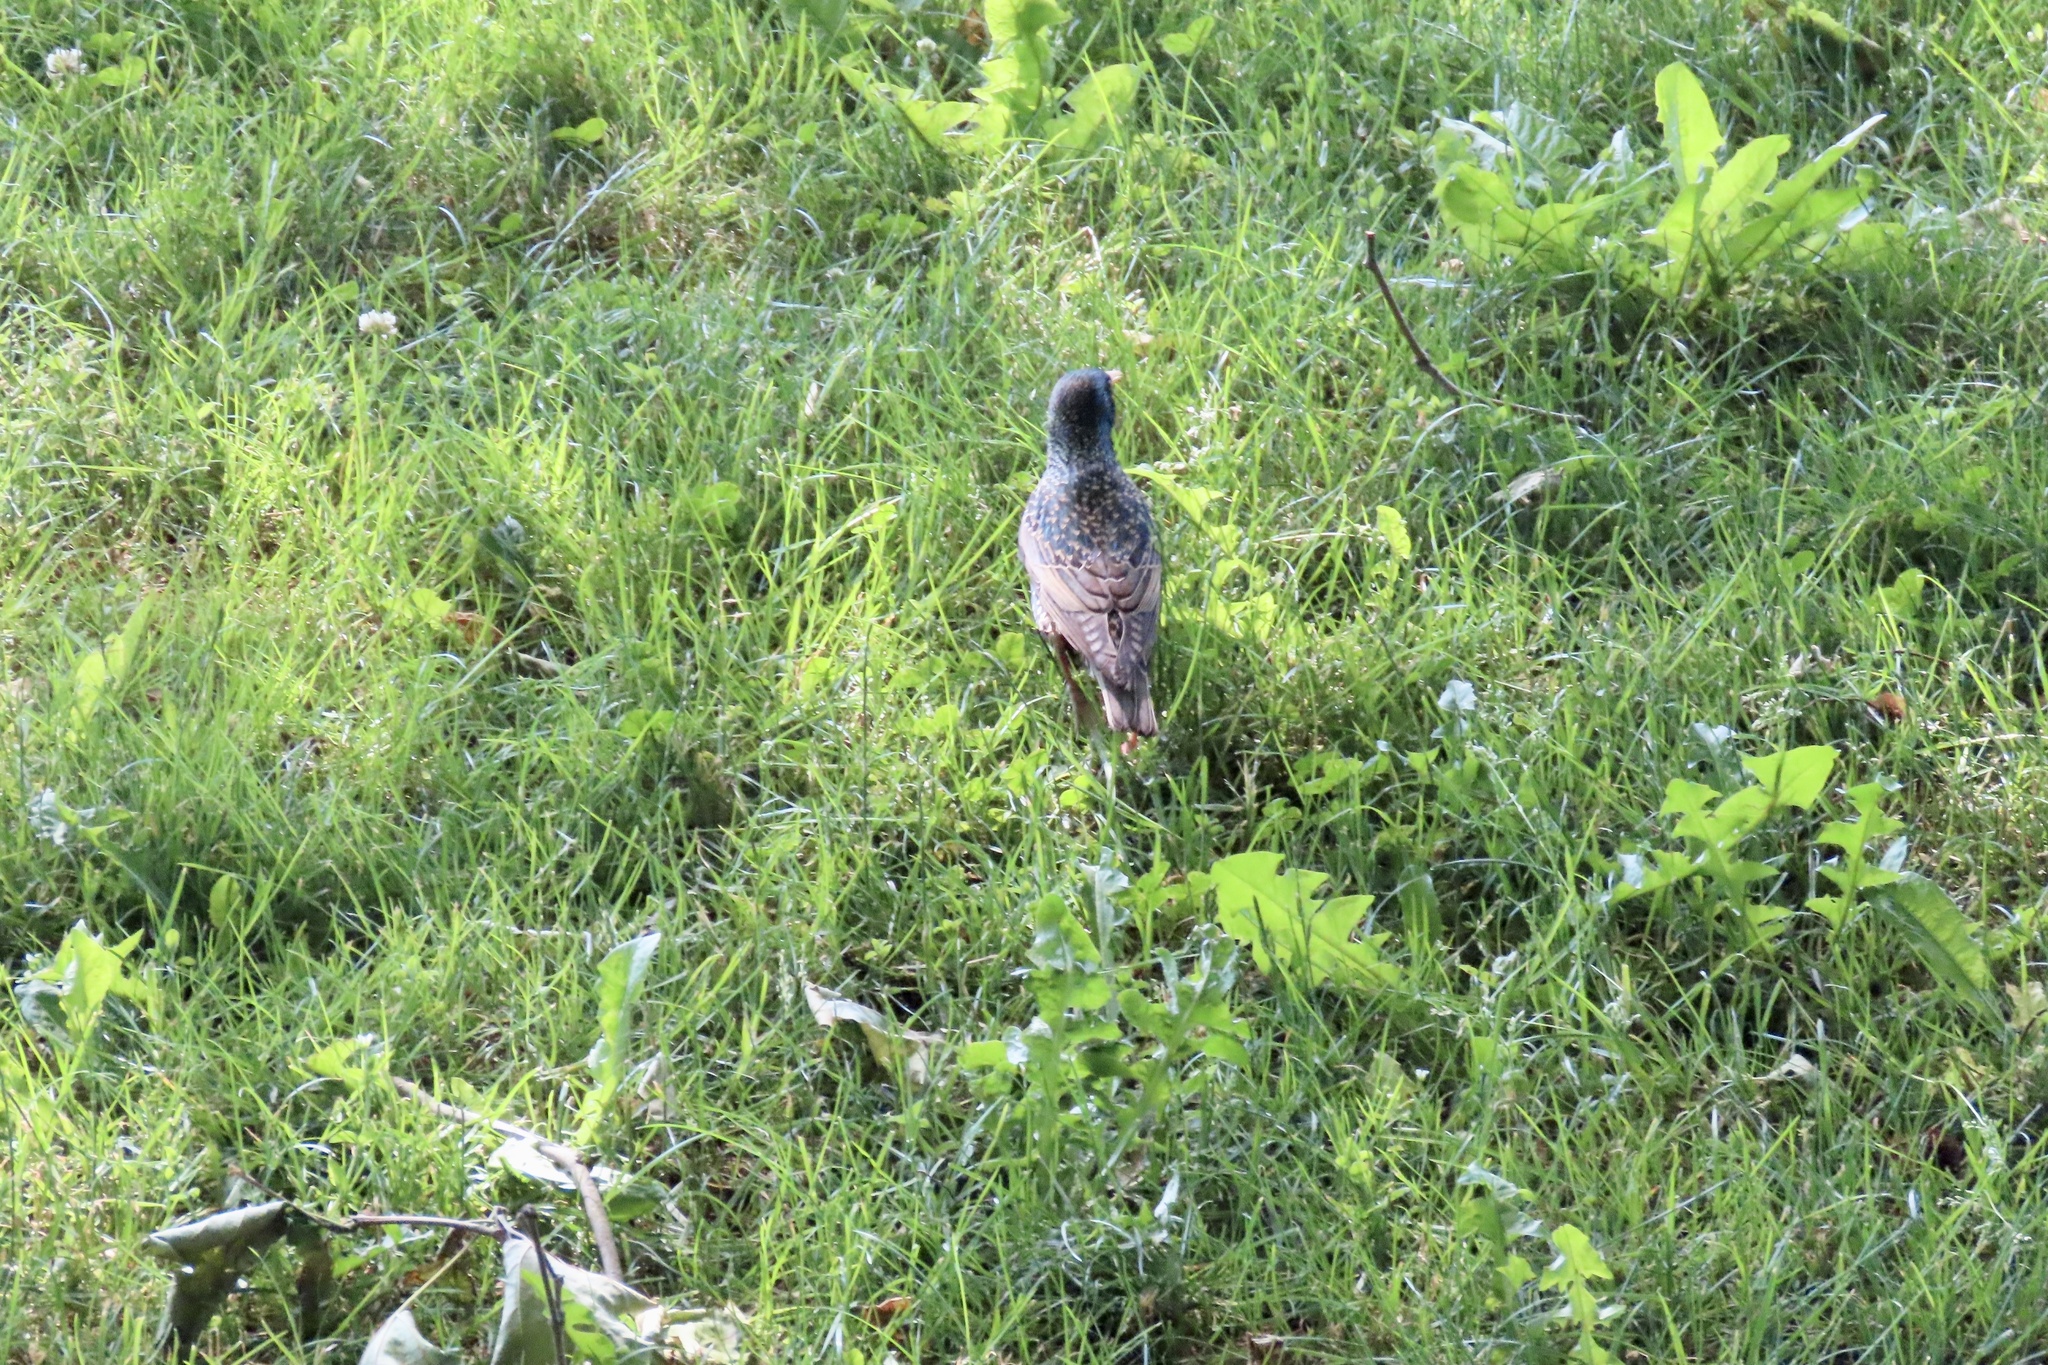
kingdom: Animalia
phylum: Chordata
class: Aves
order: Passeriformes
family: Sturnidae
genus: Sturnus
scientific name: Sturnus vulgaris
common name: Common starling
